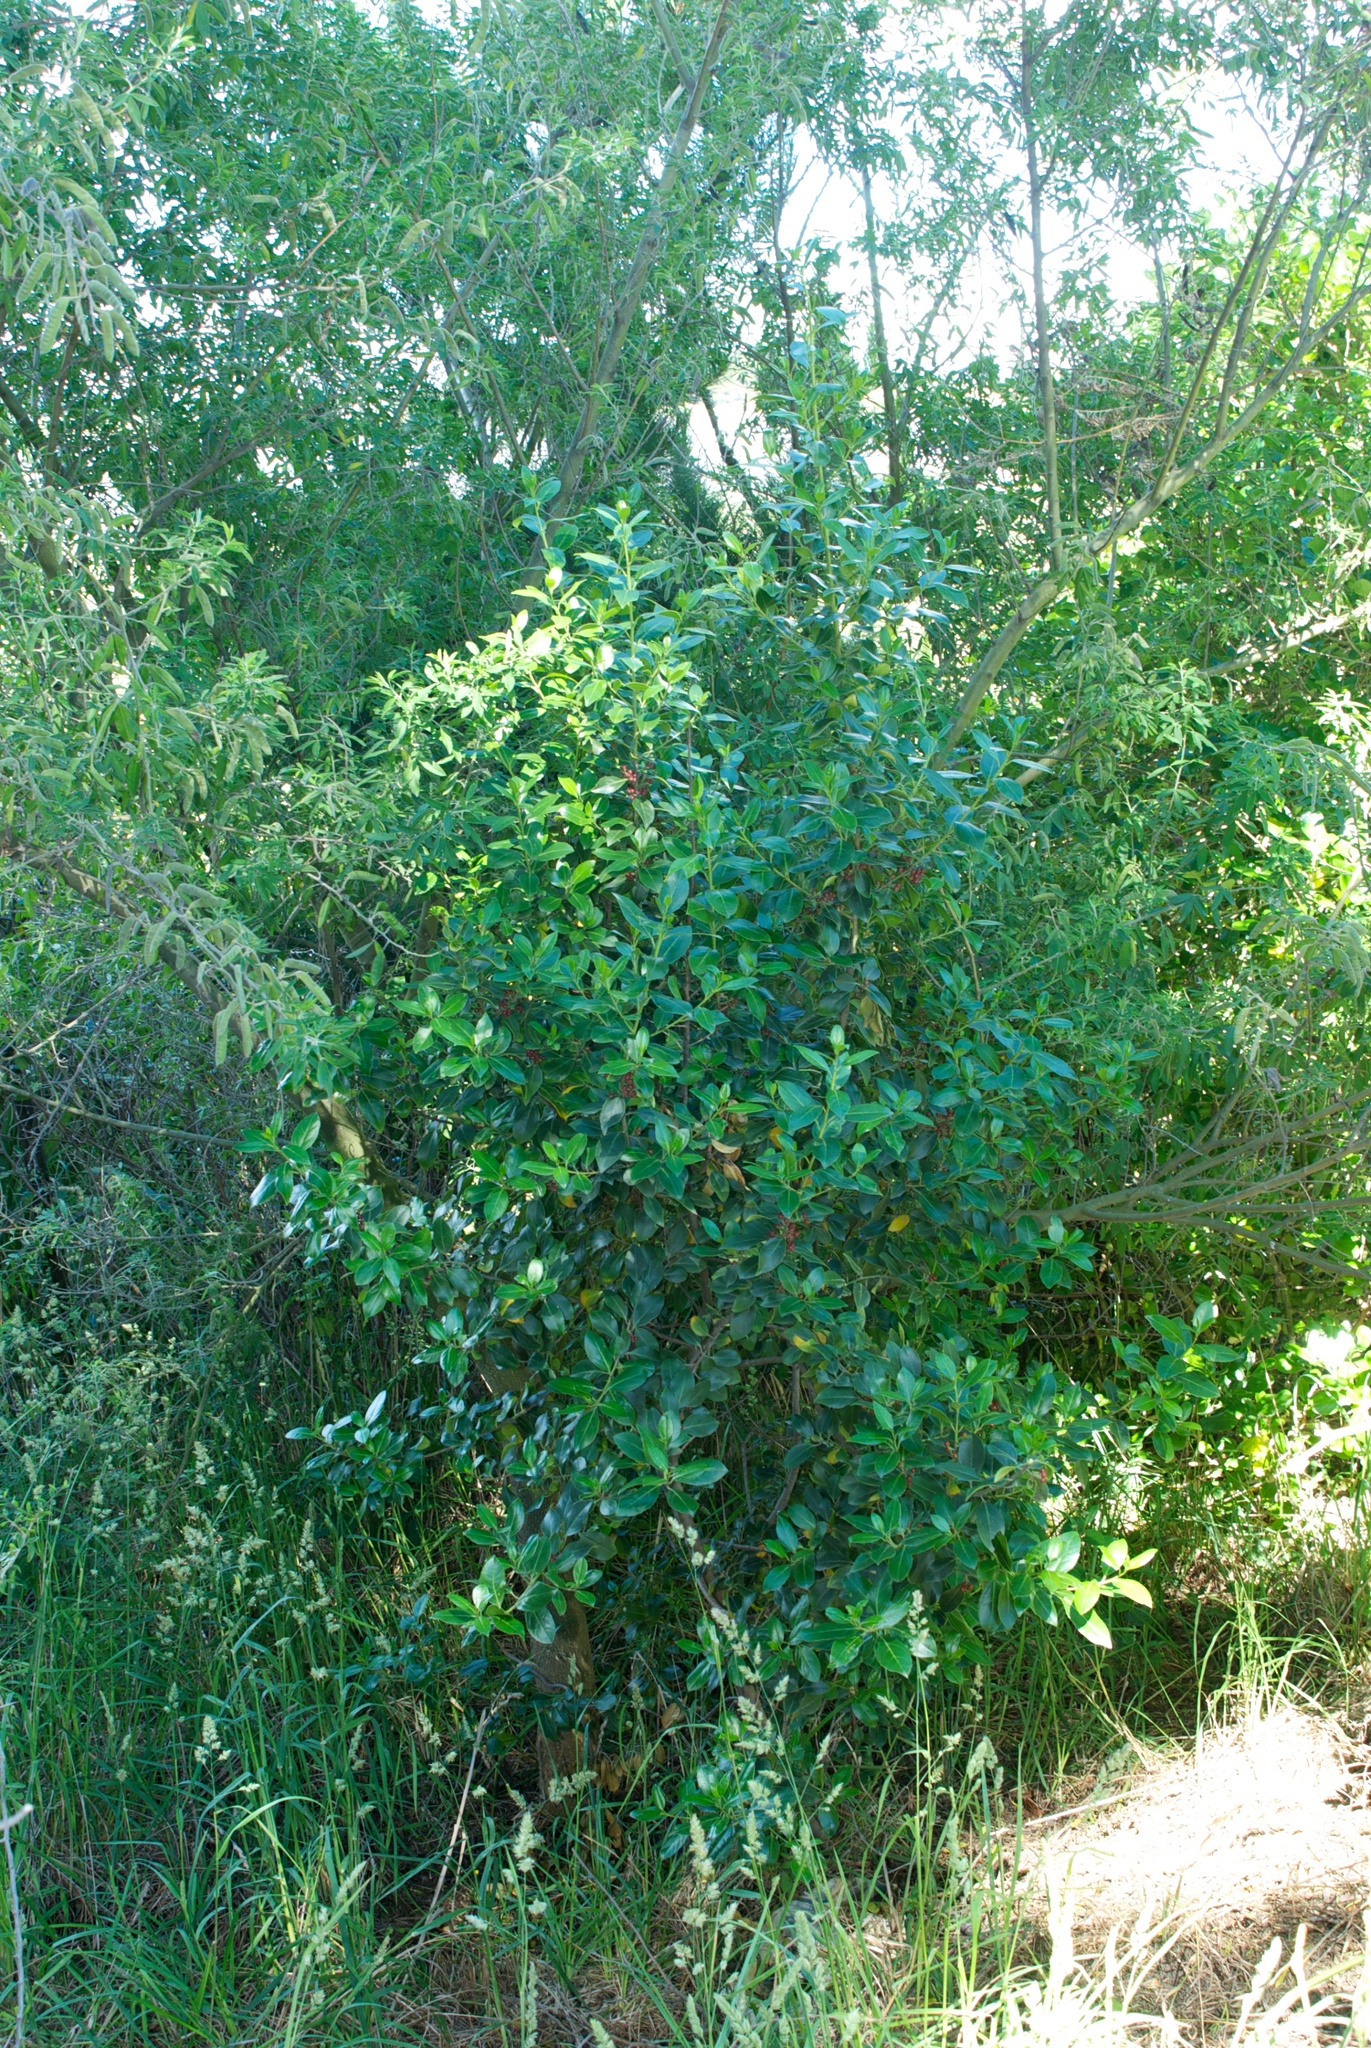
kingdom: Plantae
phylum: Tracheophyta
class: Magnoliopsida
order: Rosales
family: Rhamnaceae
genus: Rhamnus
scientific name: Rhamnus alaternus
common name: Mediterranean buckthorn
